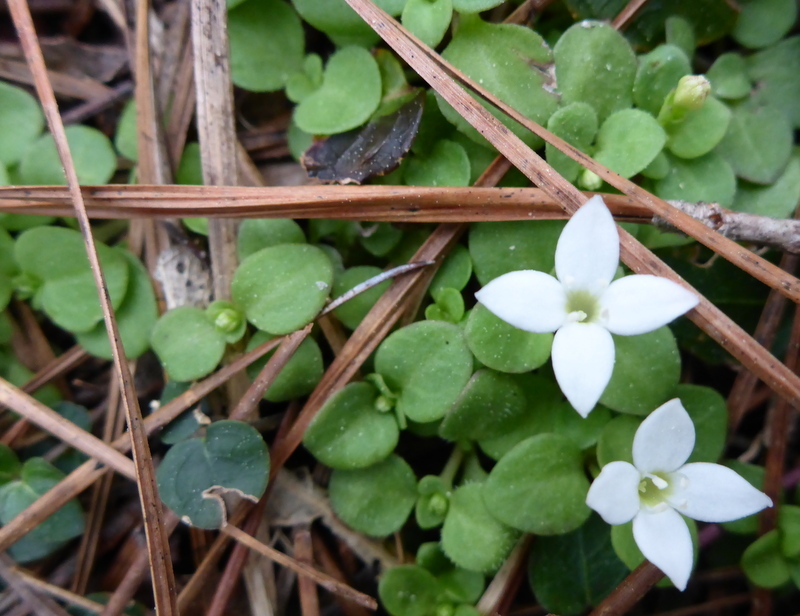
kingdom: Plantae
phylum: Tracheophyta
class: Magnoliopsida
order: Gentianales
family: Rubiaceae
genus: Houstonia
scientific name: Houstonia procumbens
